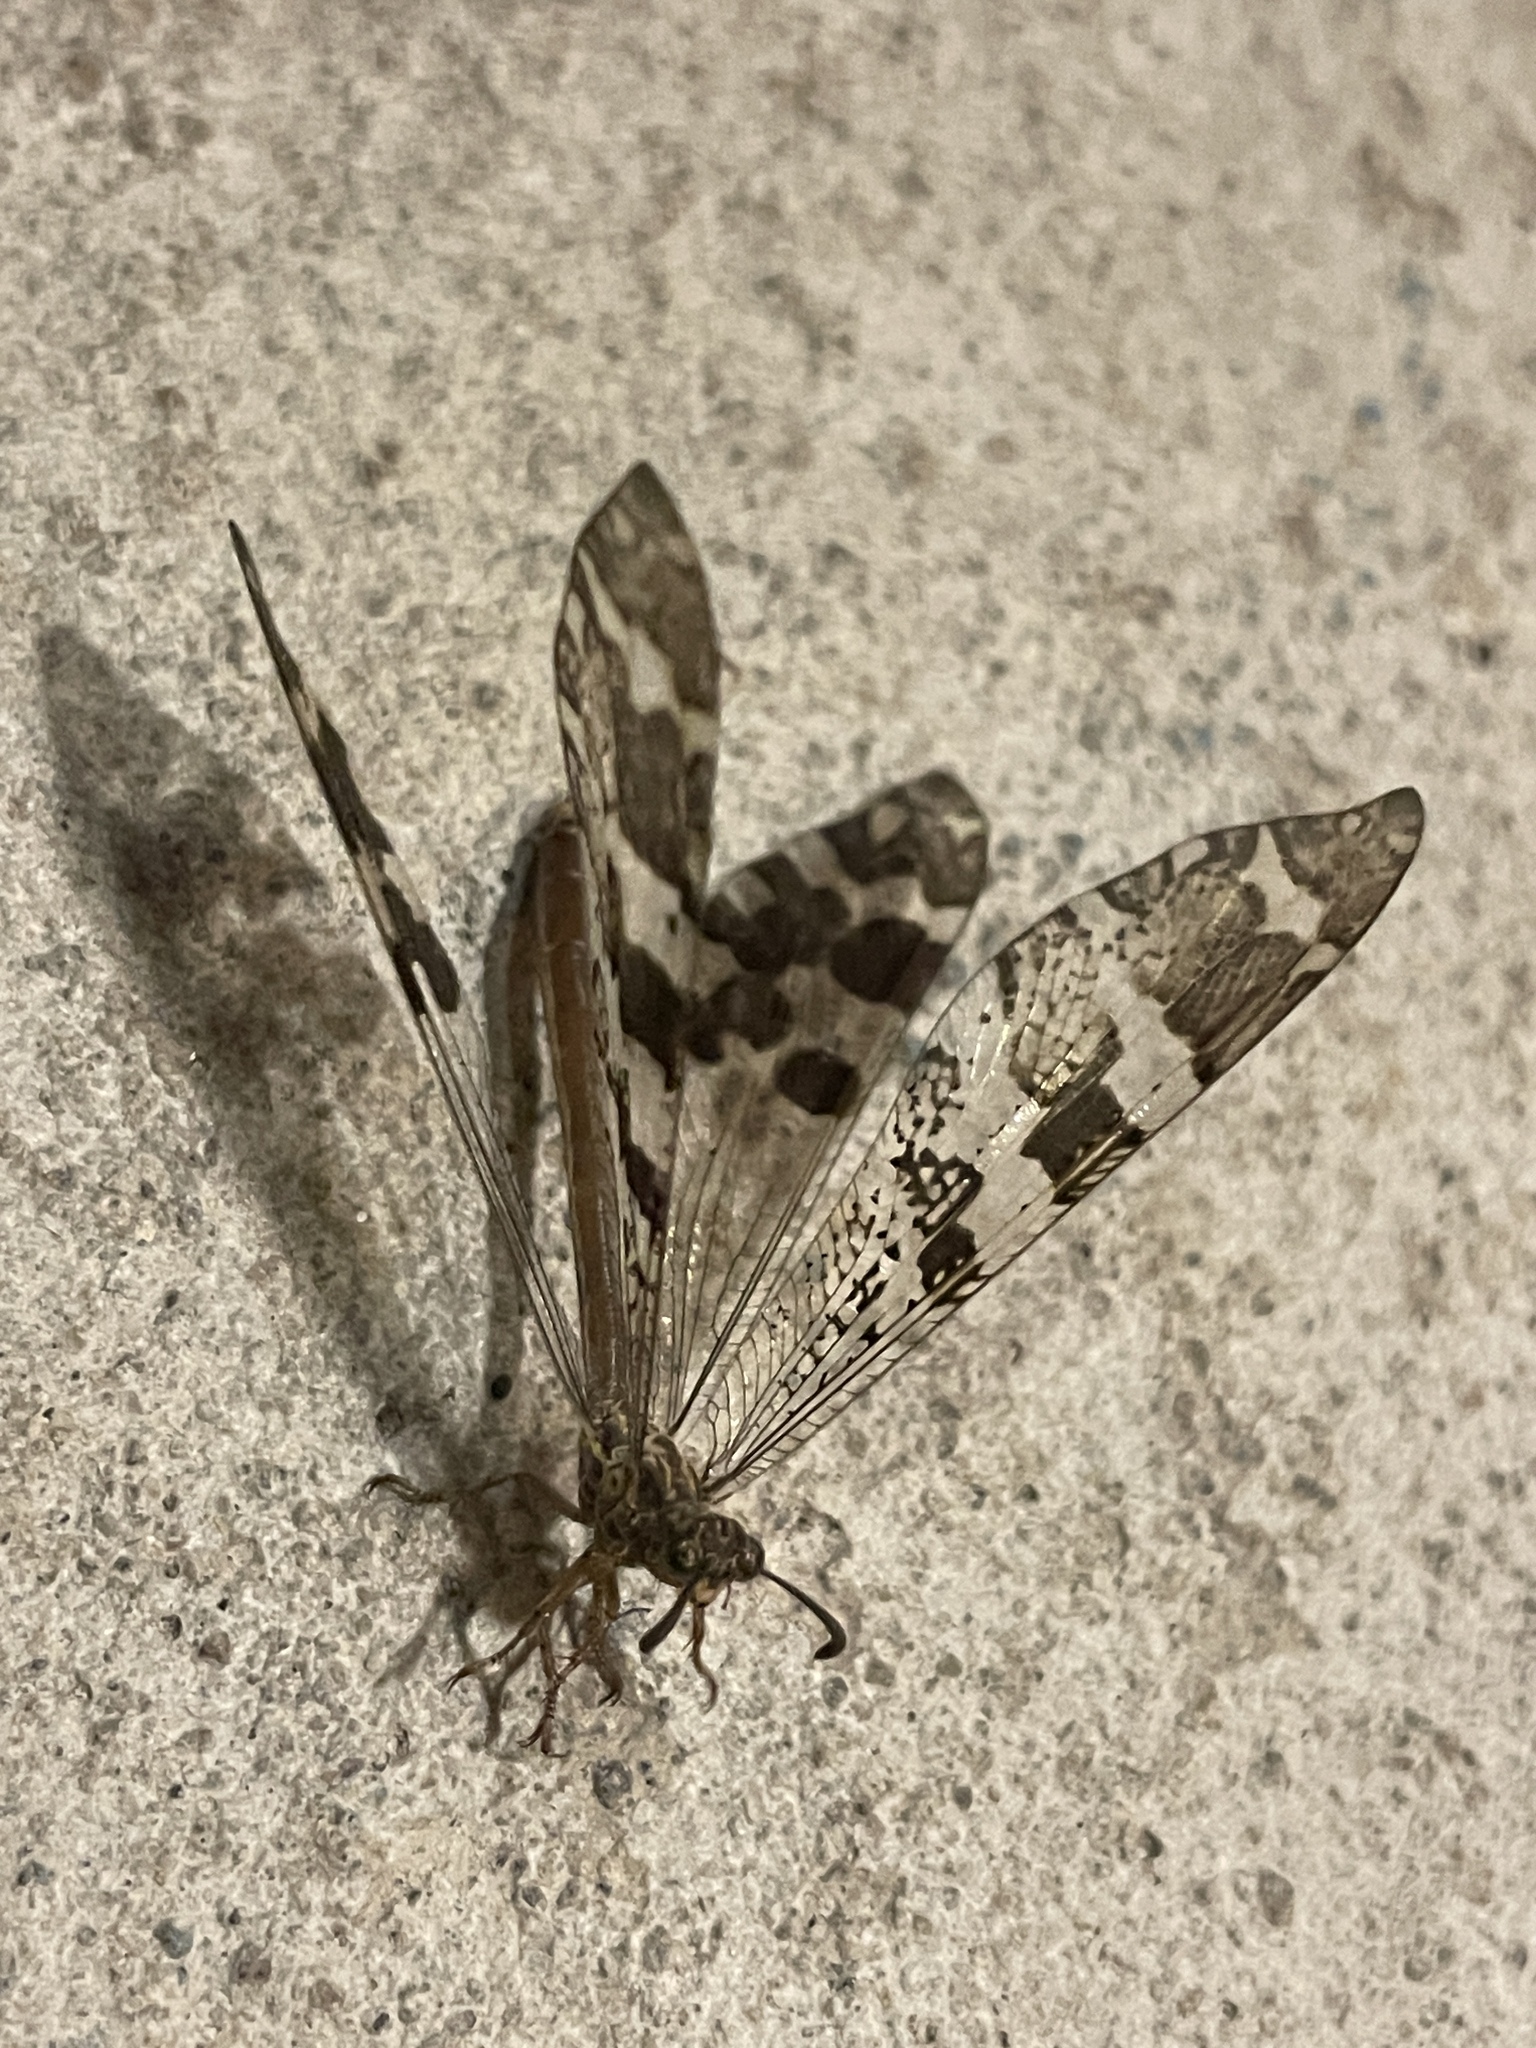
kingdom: Animalia
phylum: Arthropoda
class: Insecta
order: Neuroptera
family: Myrmeleontidae
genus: Millerleon
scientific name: Millerleon subdolus
